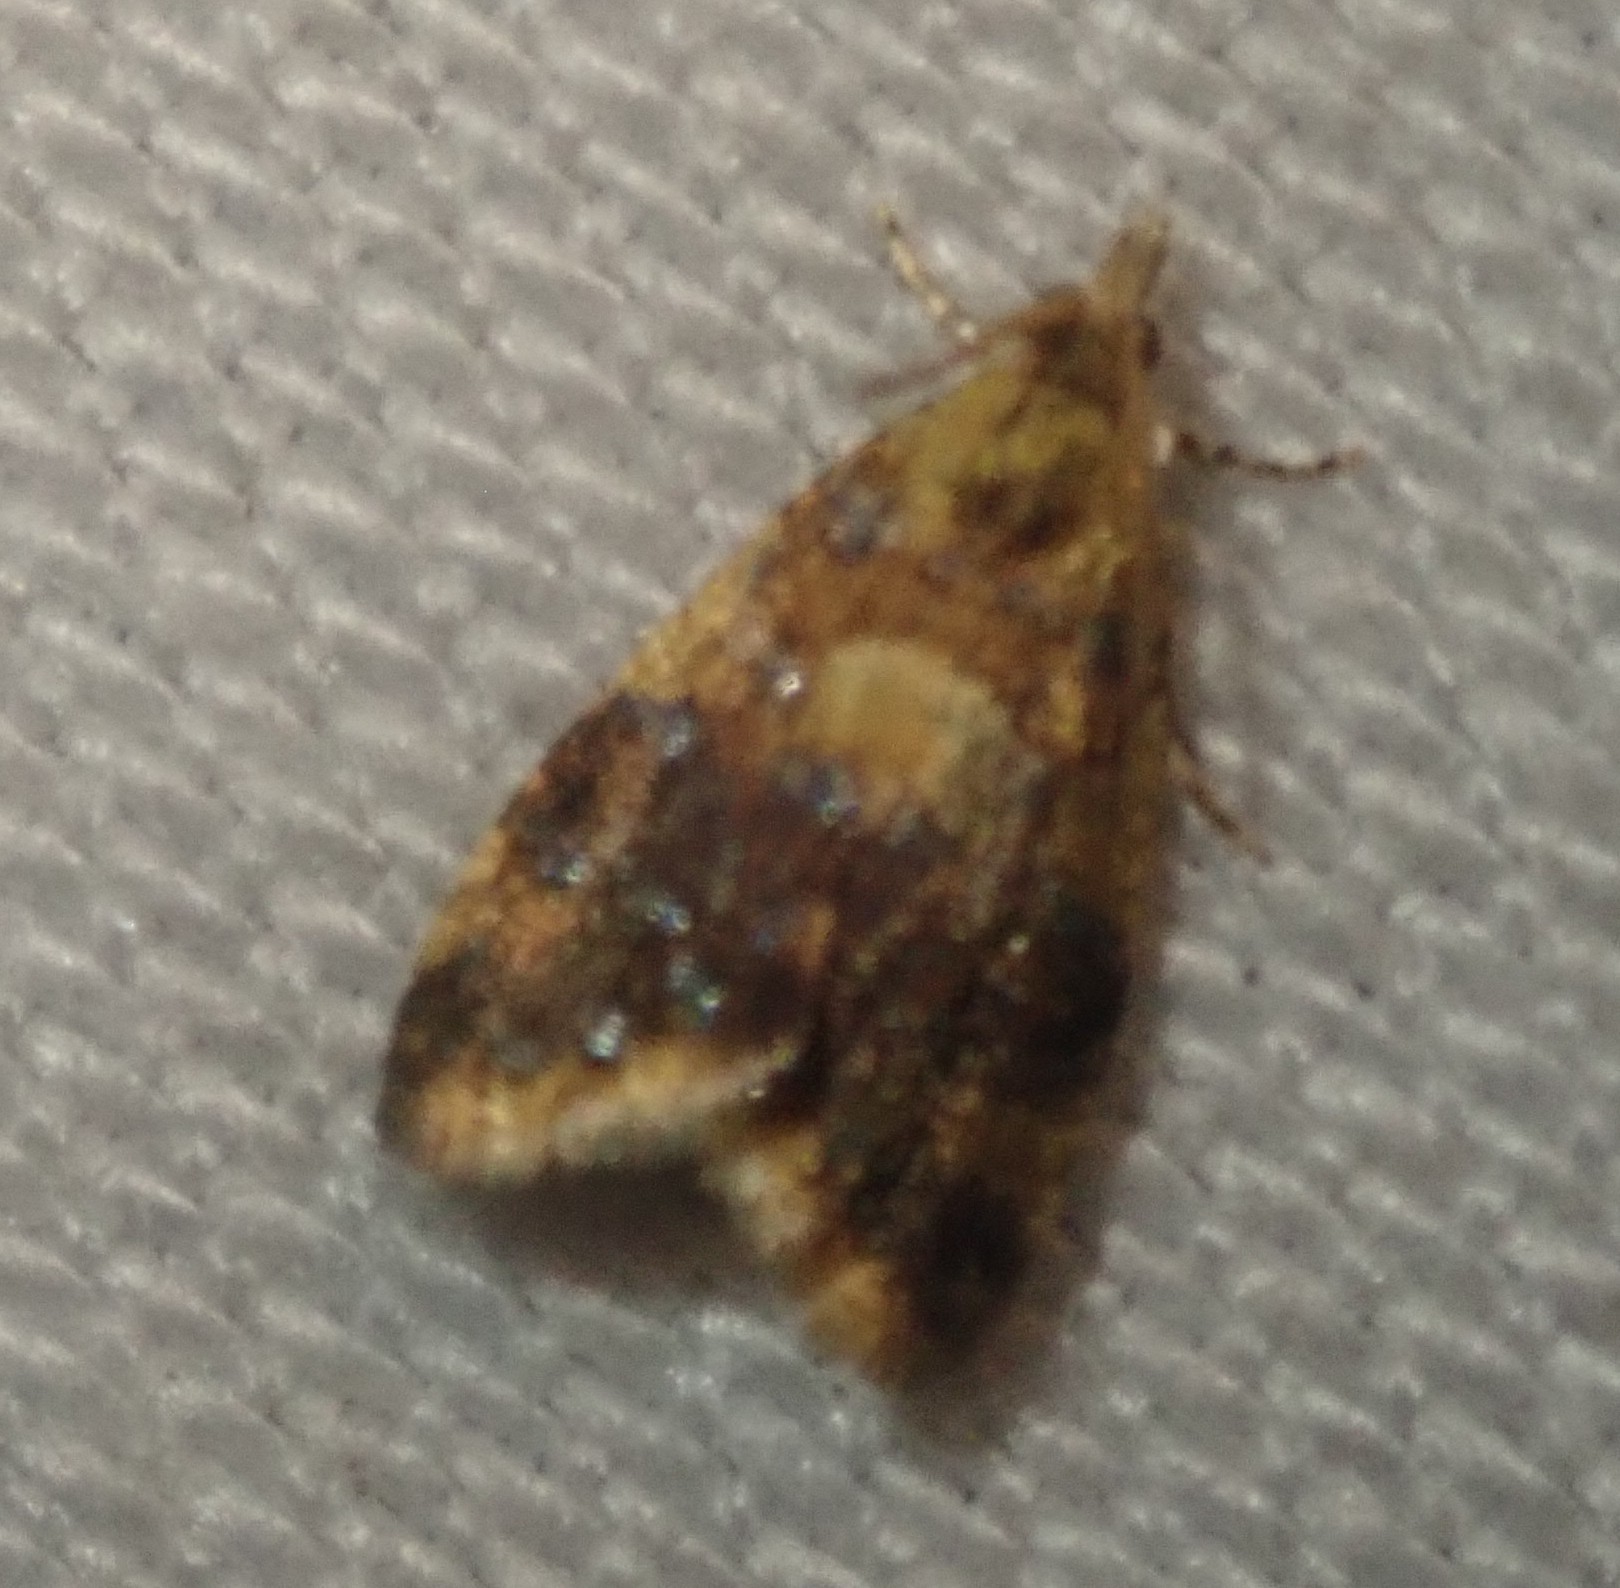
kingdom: Animalia
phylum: Arthropoda
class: Insecta
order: Lepidoptera
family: Tortricidae
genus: Pseudargyrotoza
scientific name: Pseudargyrotoza conwagana
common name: Yellow-spot twist
